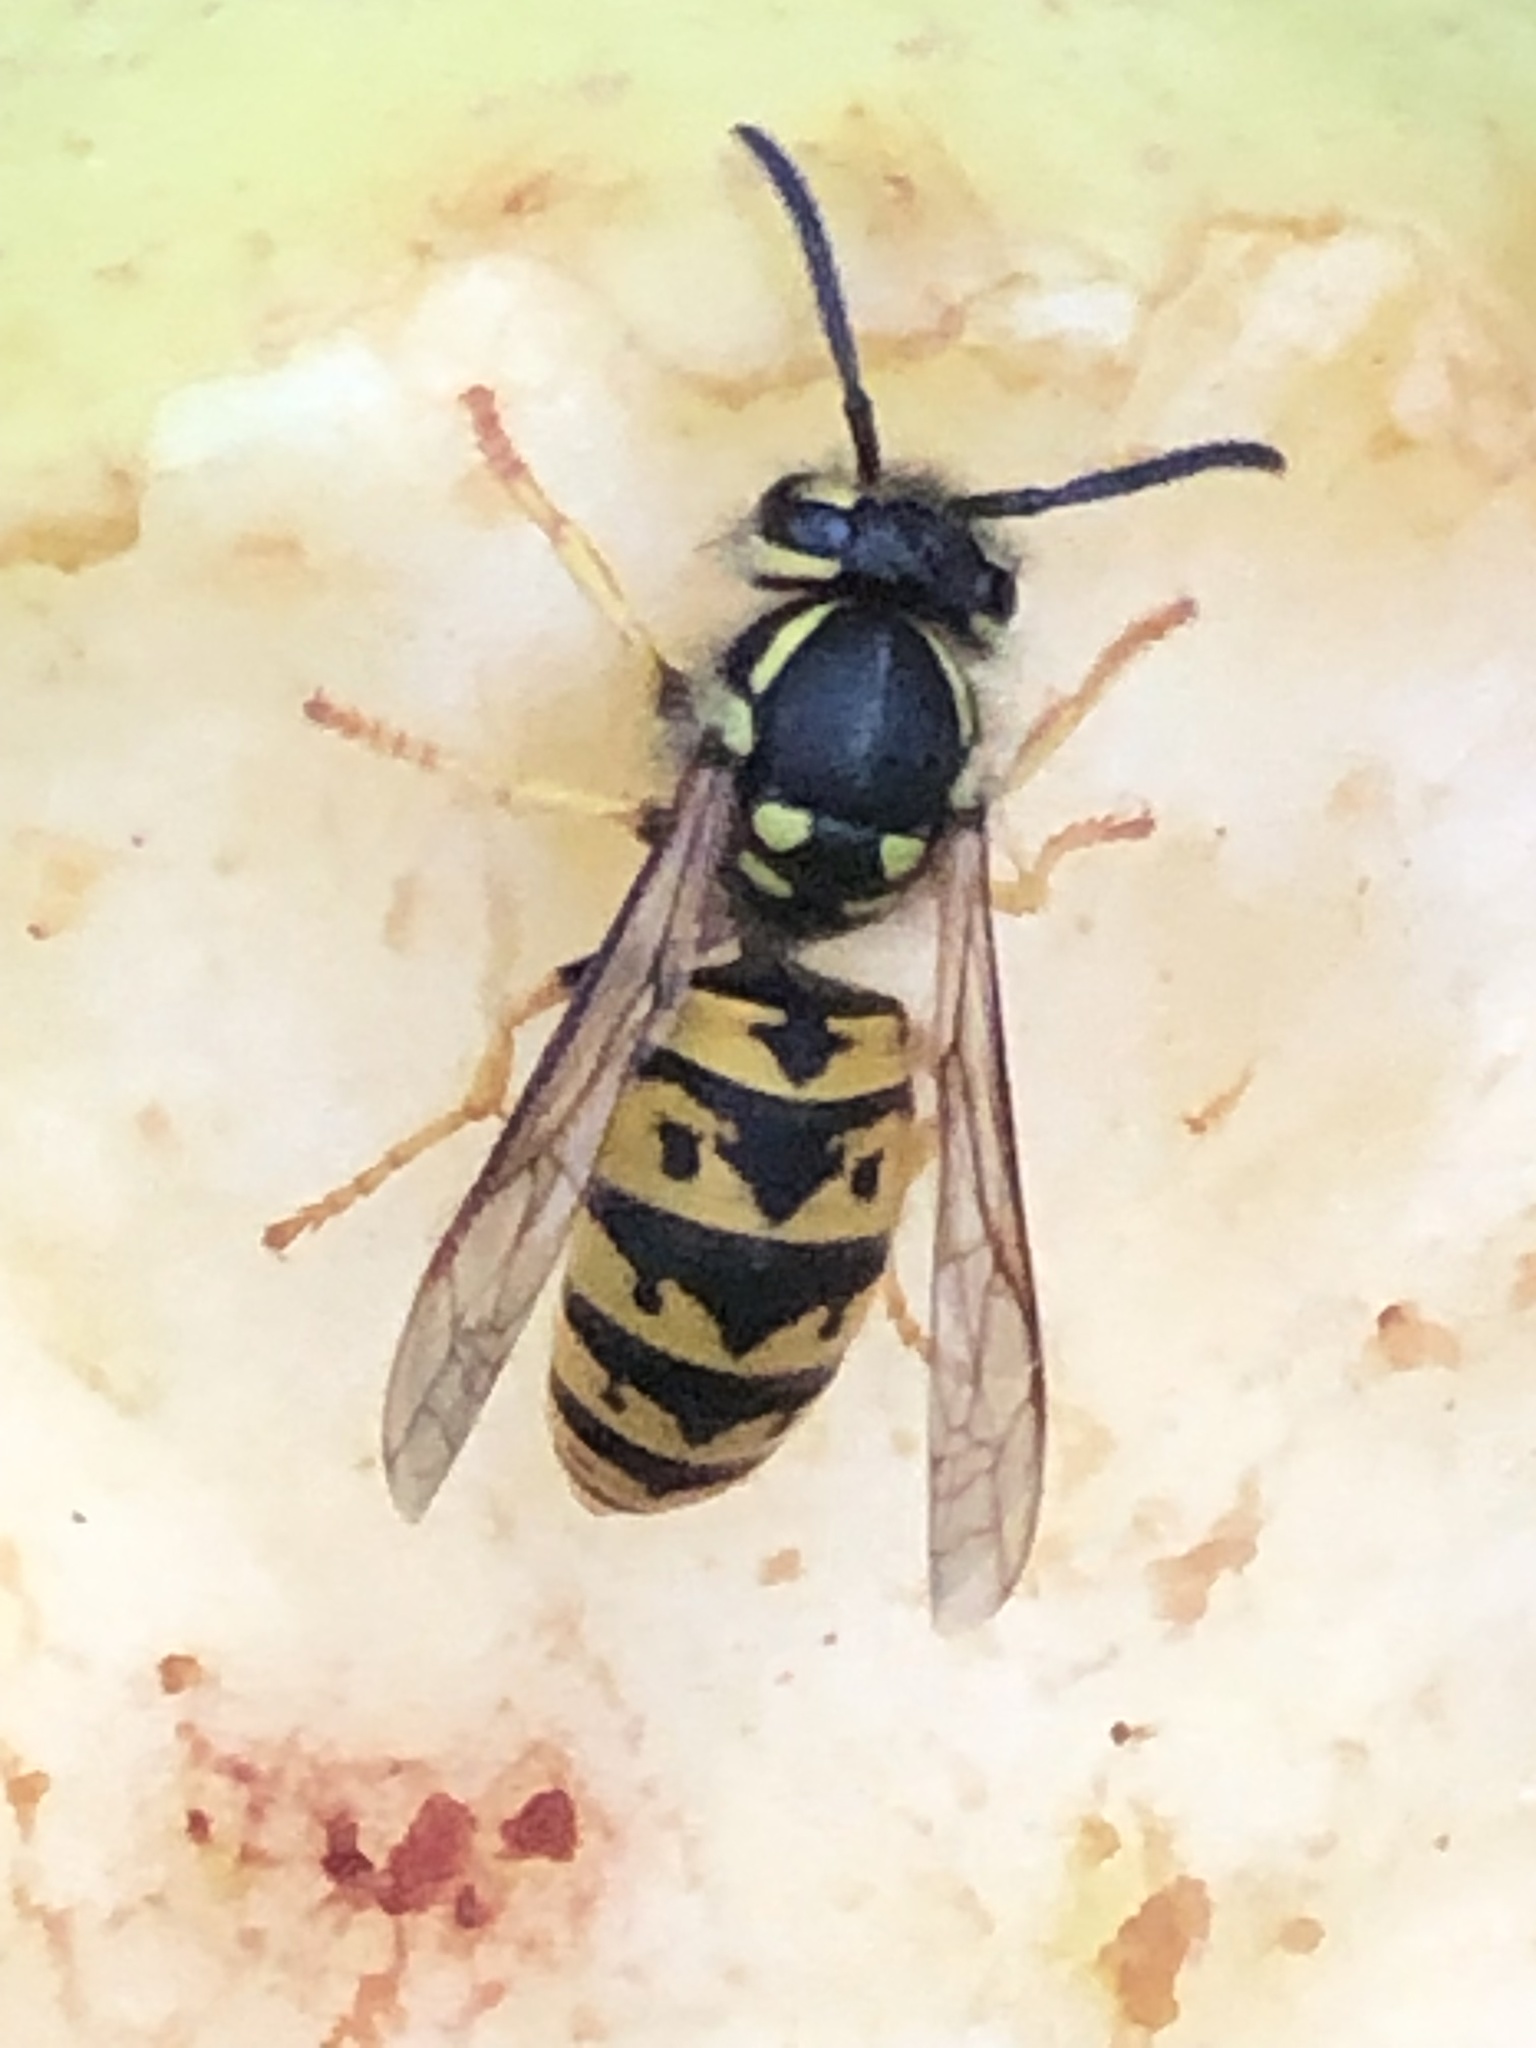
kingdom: Animalia
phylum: Arthropoda
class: Insecta
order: Hymenoptera
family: Vespidae
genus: Vespula
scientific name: Vespula germanica
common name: German wasp
